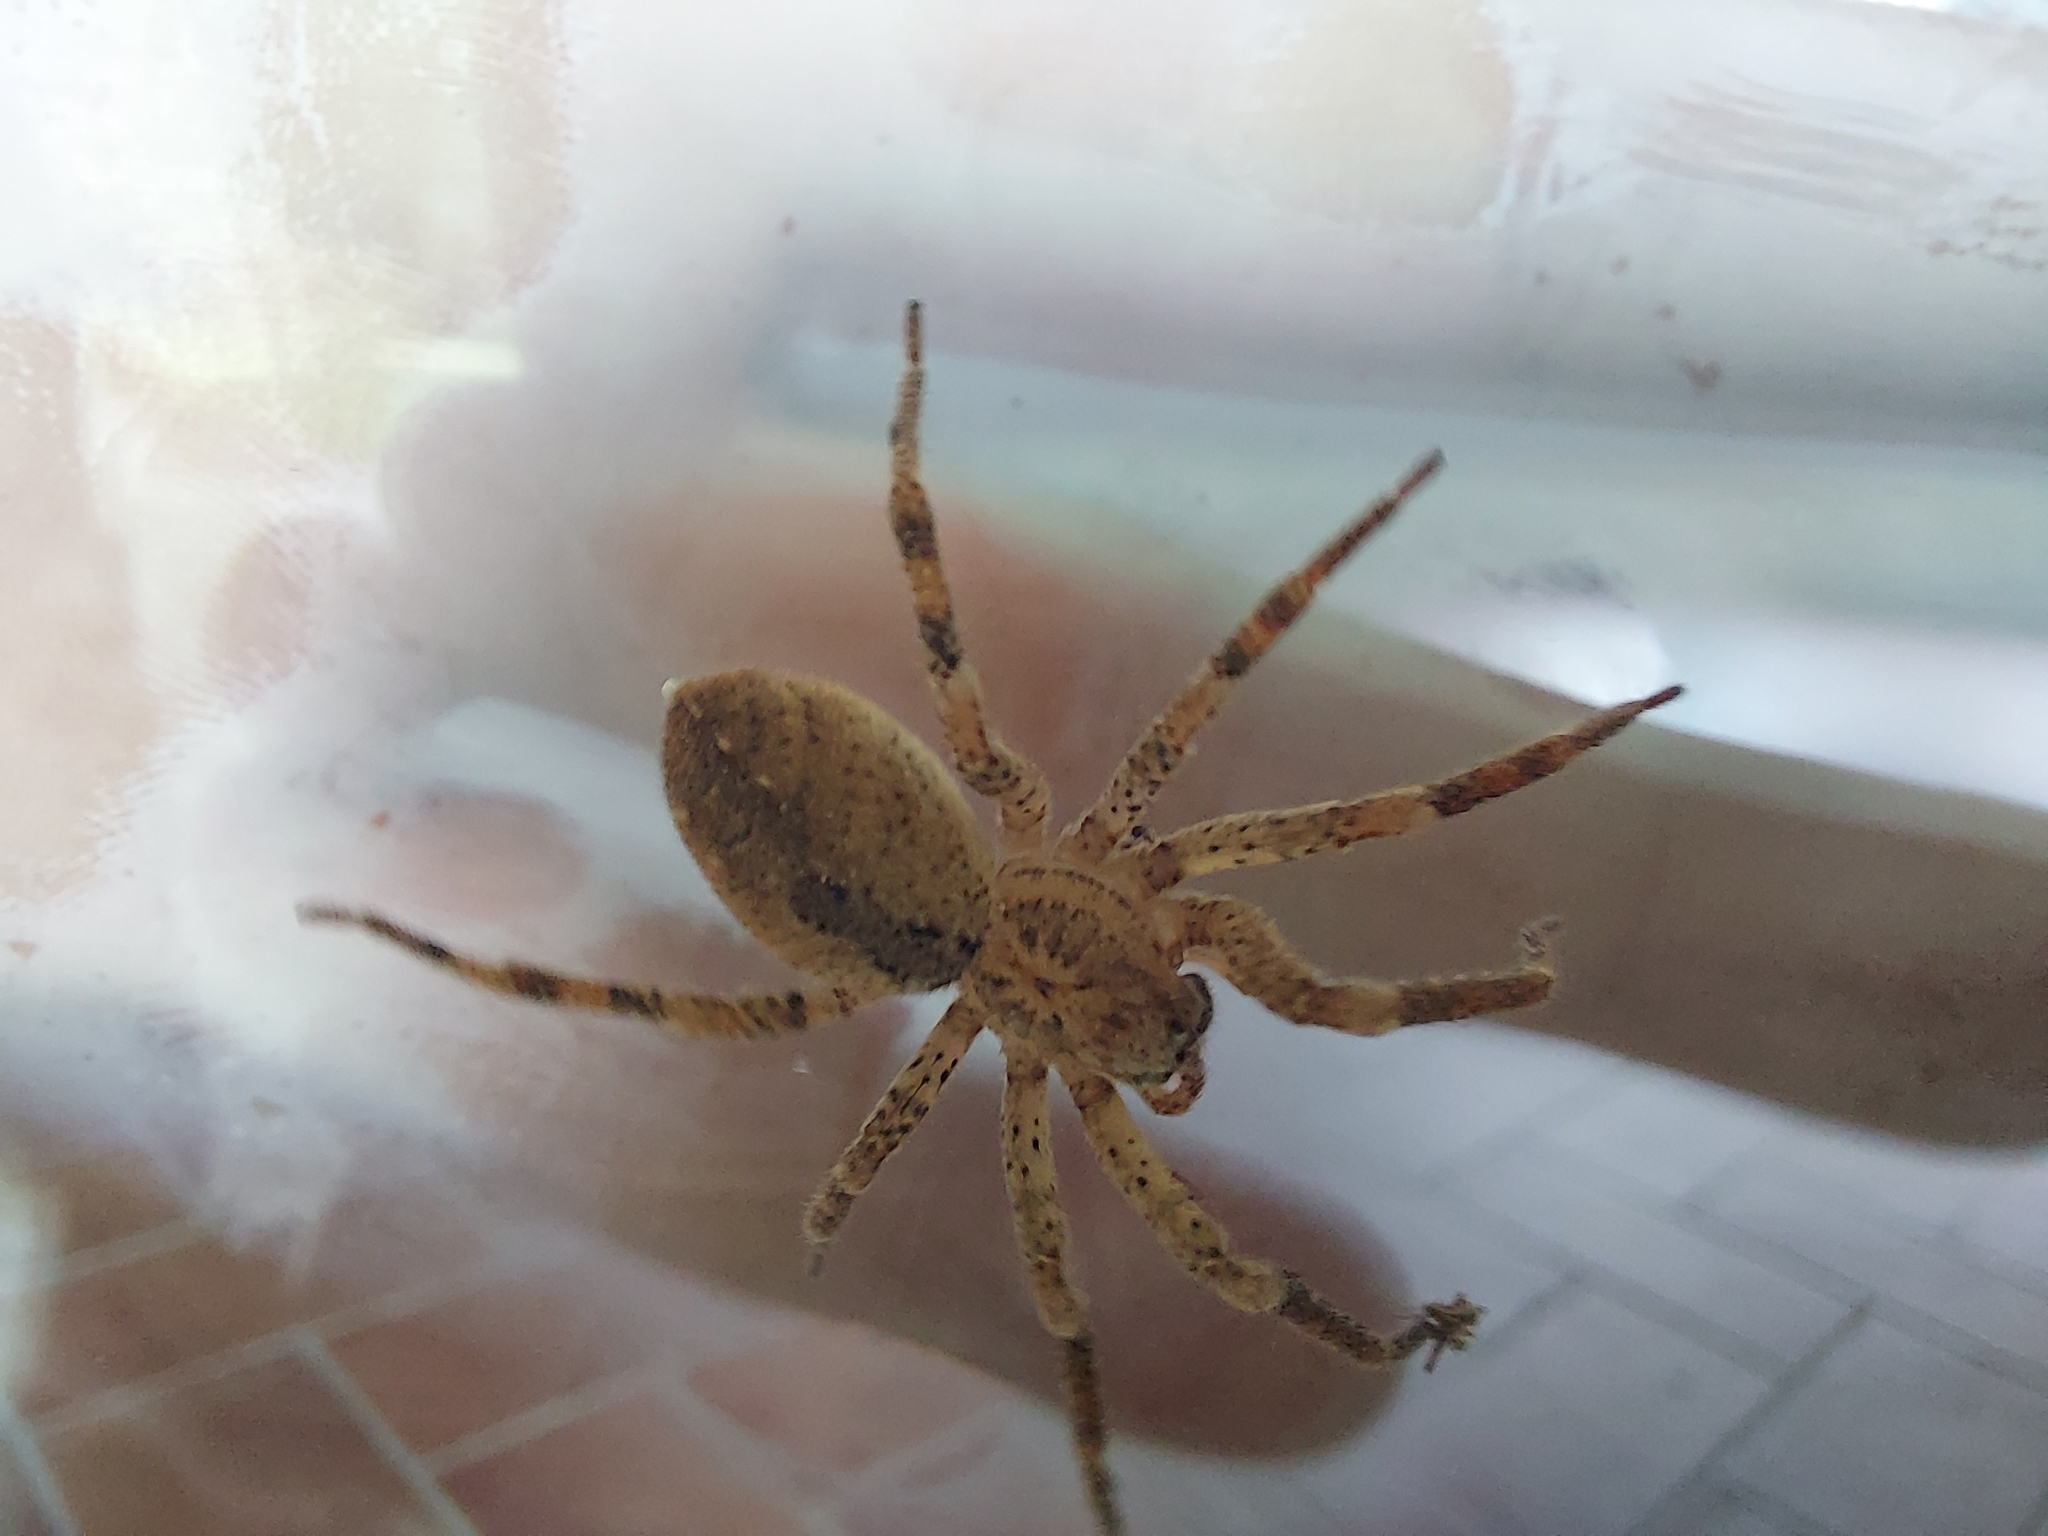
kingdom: Animalia
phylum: Arthropoda
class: Arachnida
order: Araneae
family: Zoropsidae
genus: Zoropsis
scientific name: Zoropsis spinimana
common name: Zoropsid spider
